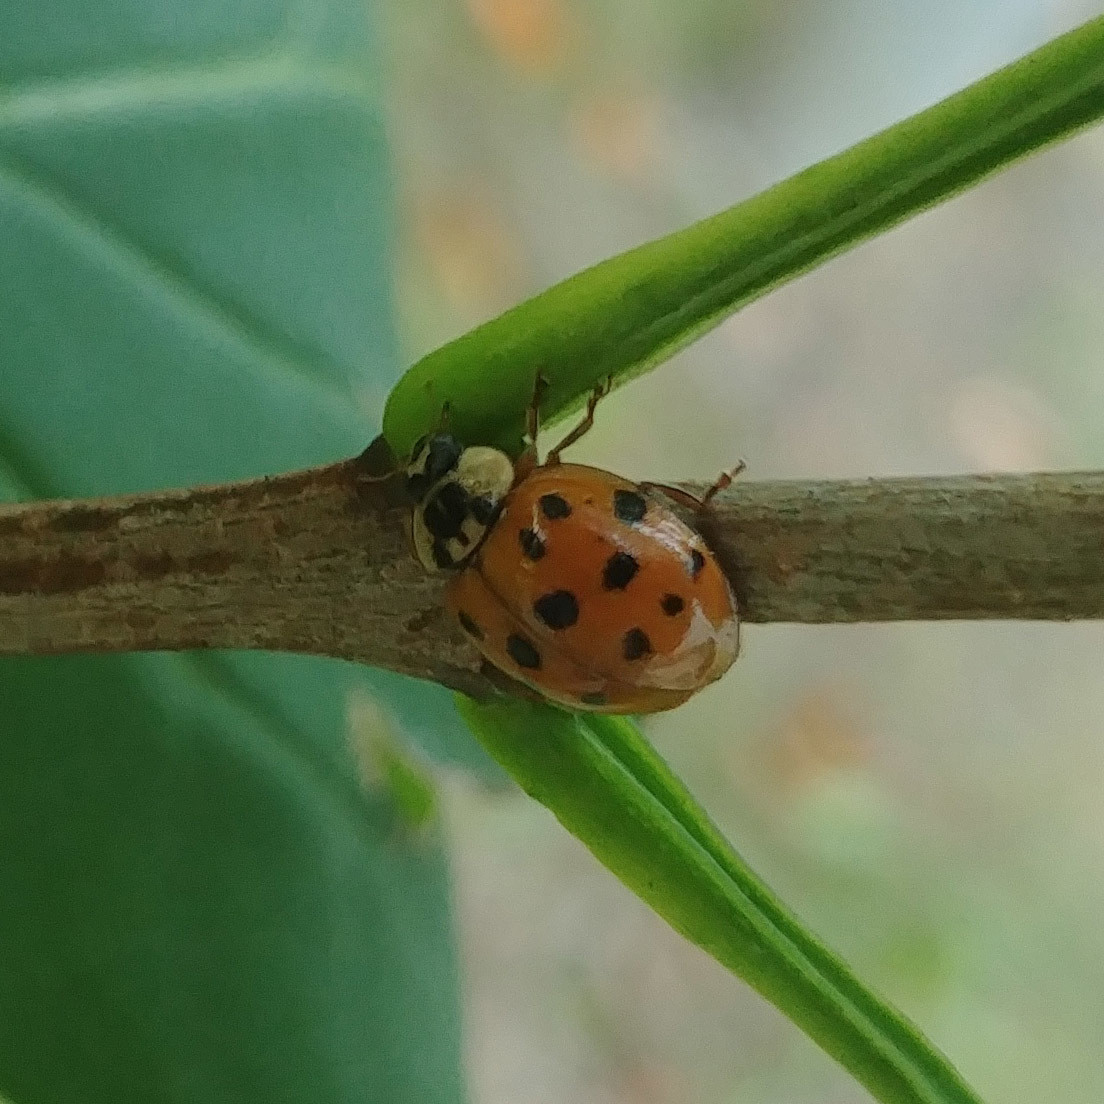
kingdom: Animalia
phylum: Arthropoda
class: Insecta
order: Coleoptera
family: Coccinellidae
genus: Harmonia
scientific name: Harmonia axyridis
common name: Harlequin ladybird
